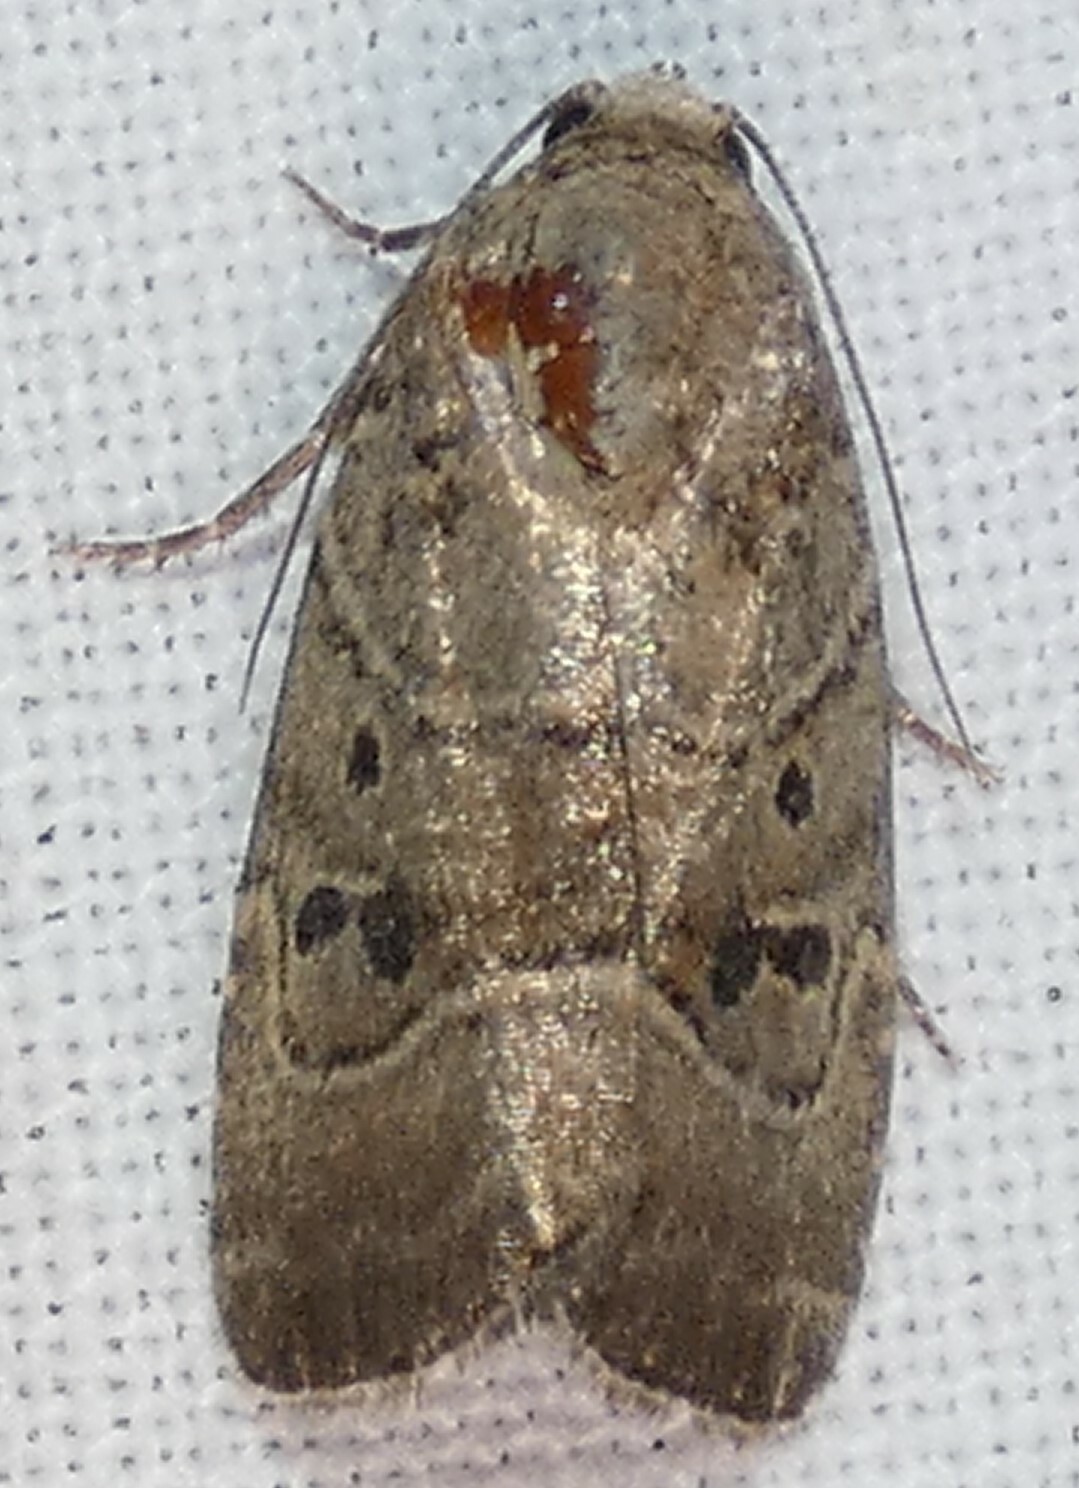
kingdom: Animalia
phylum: Arthropoda
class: Insecta
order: Lepidoptera
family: Noctuidae
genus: Elaphria
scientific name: Elaphria fuscimacula
